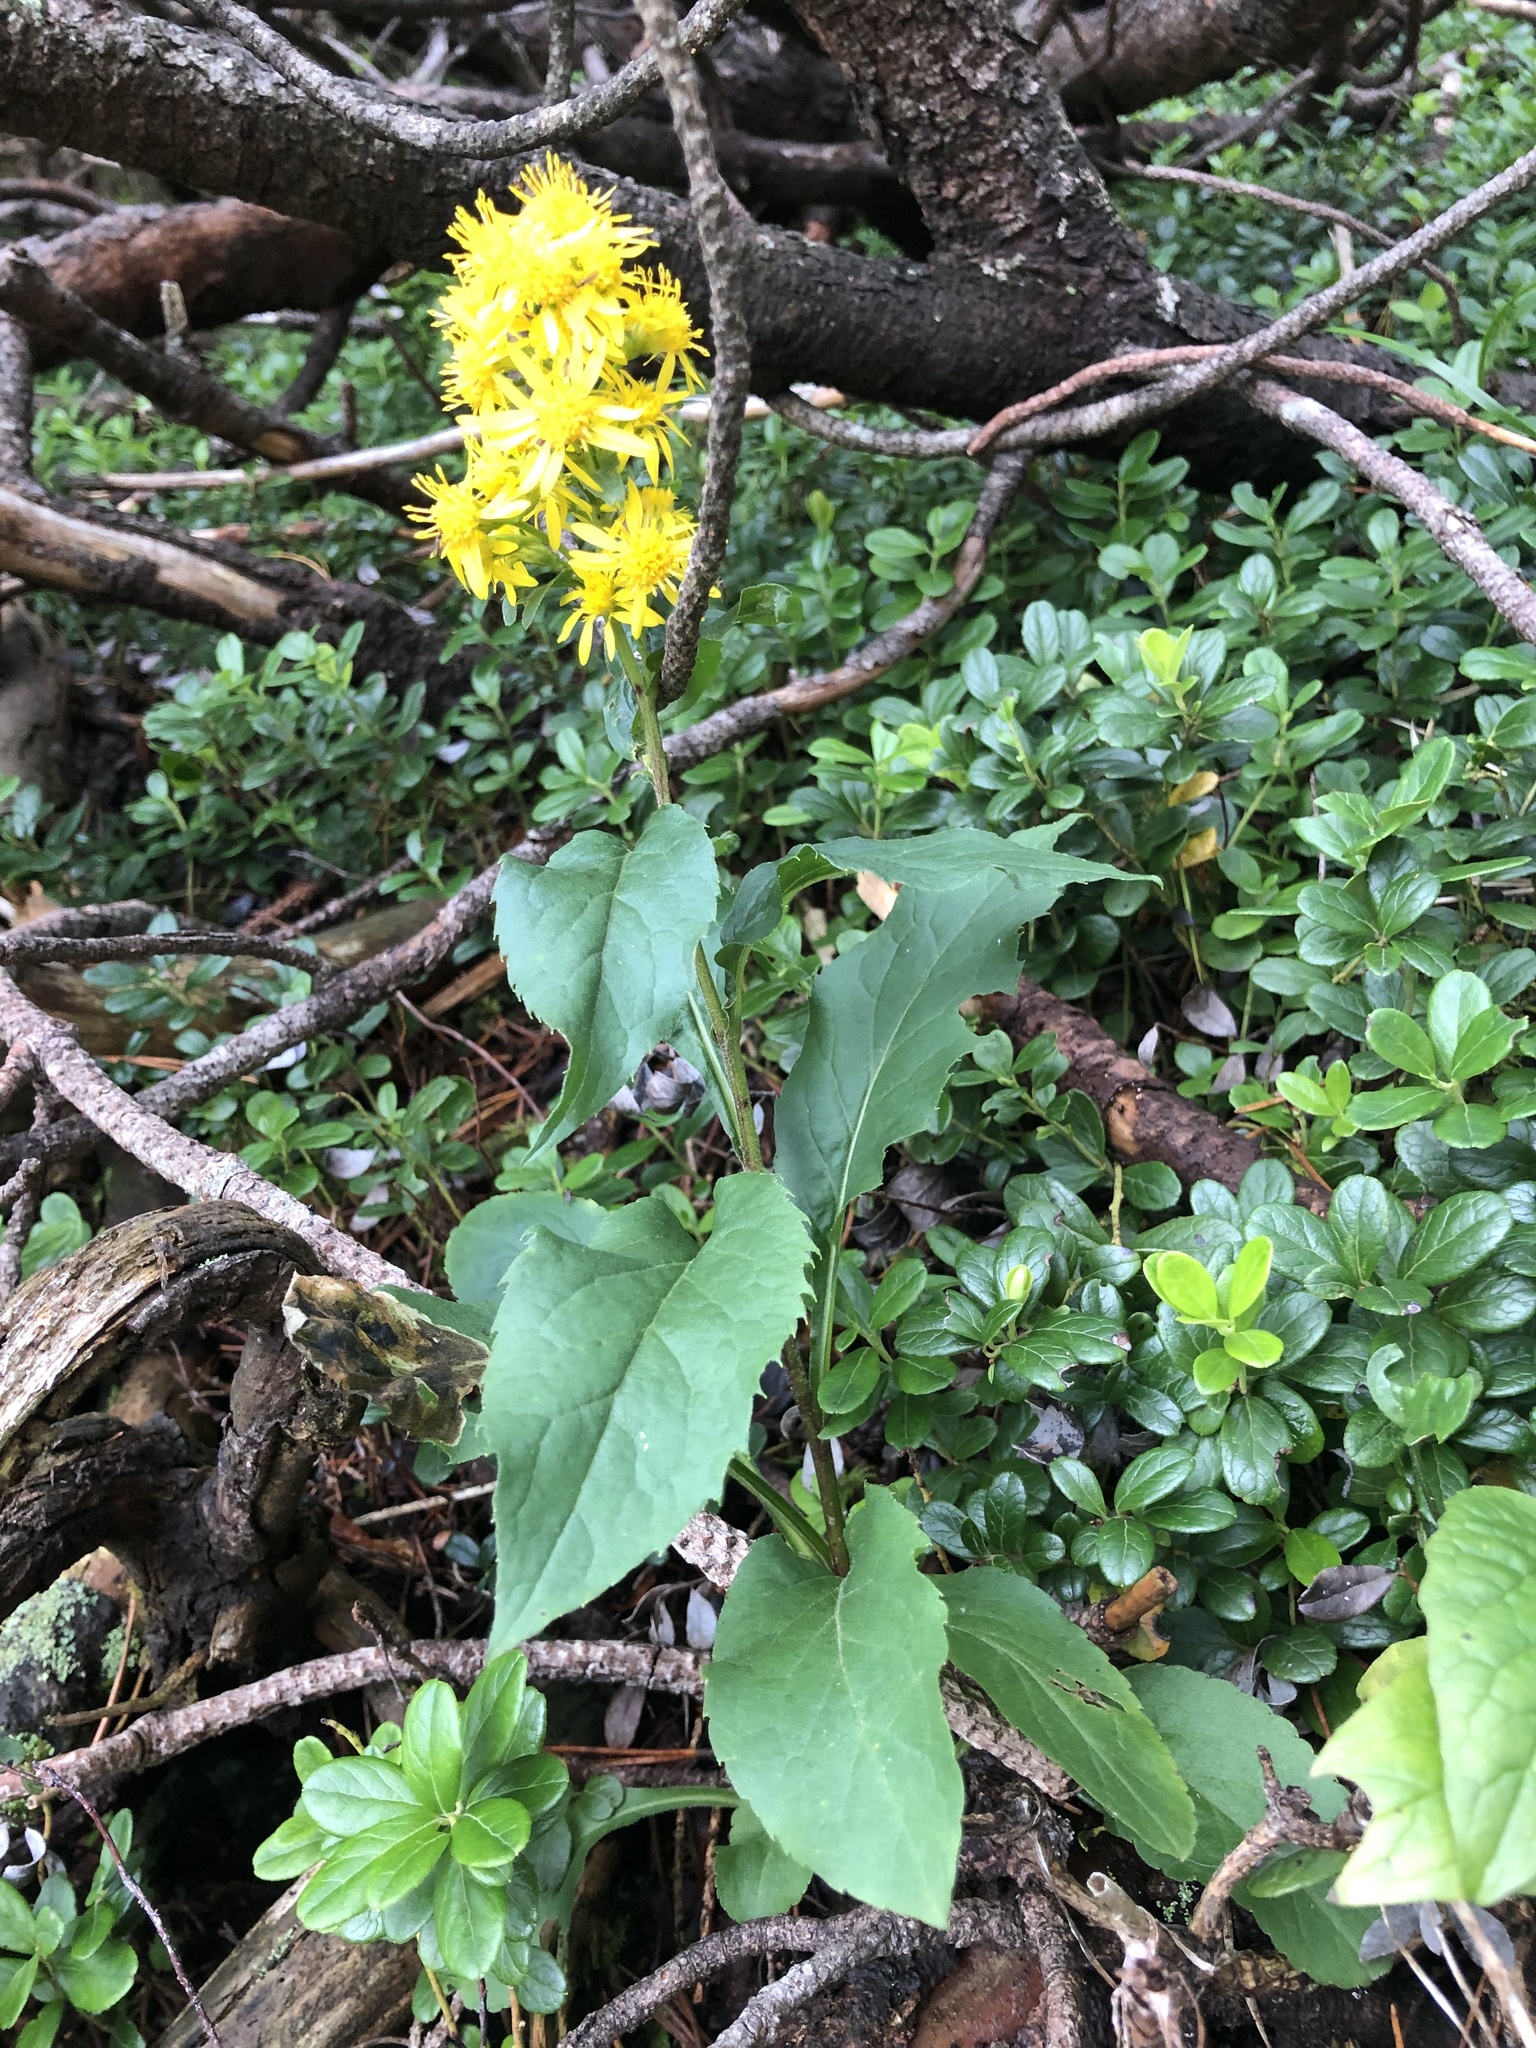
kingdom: Plantae
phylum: Tracheophyta
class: Magnoliopsida
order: Asterales
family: Asteraceae
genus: Solidago
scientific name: Solidago virgaurea
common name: Goldenrod
